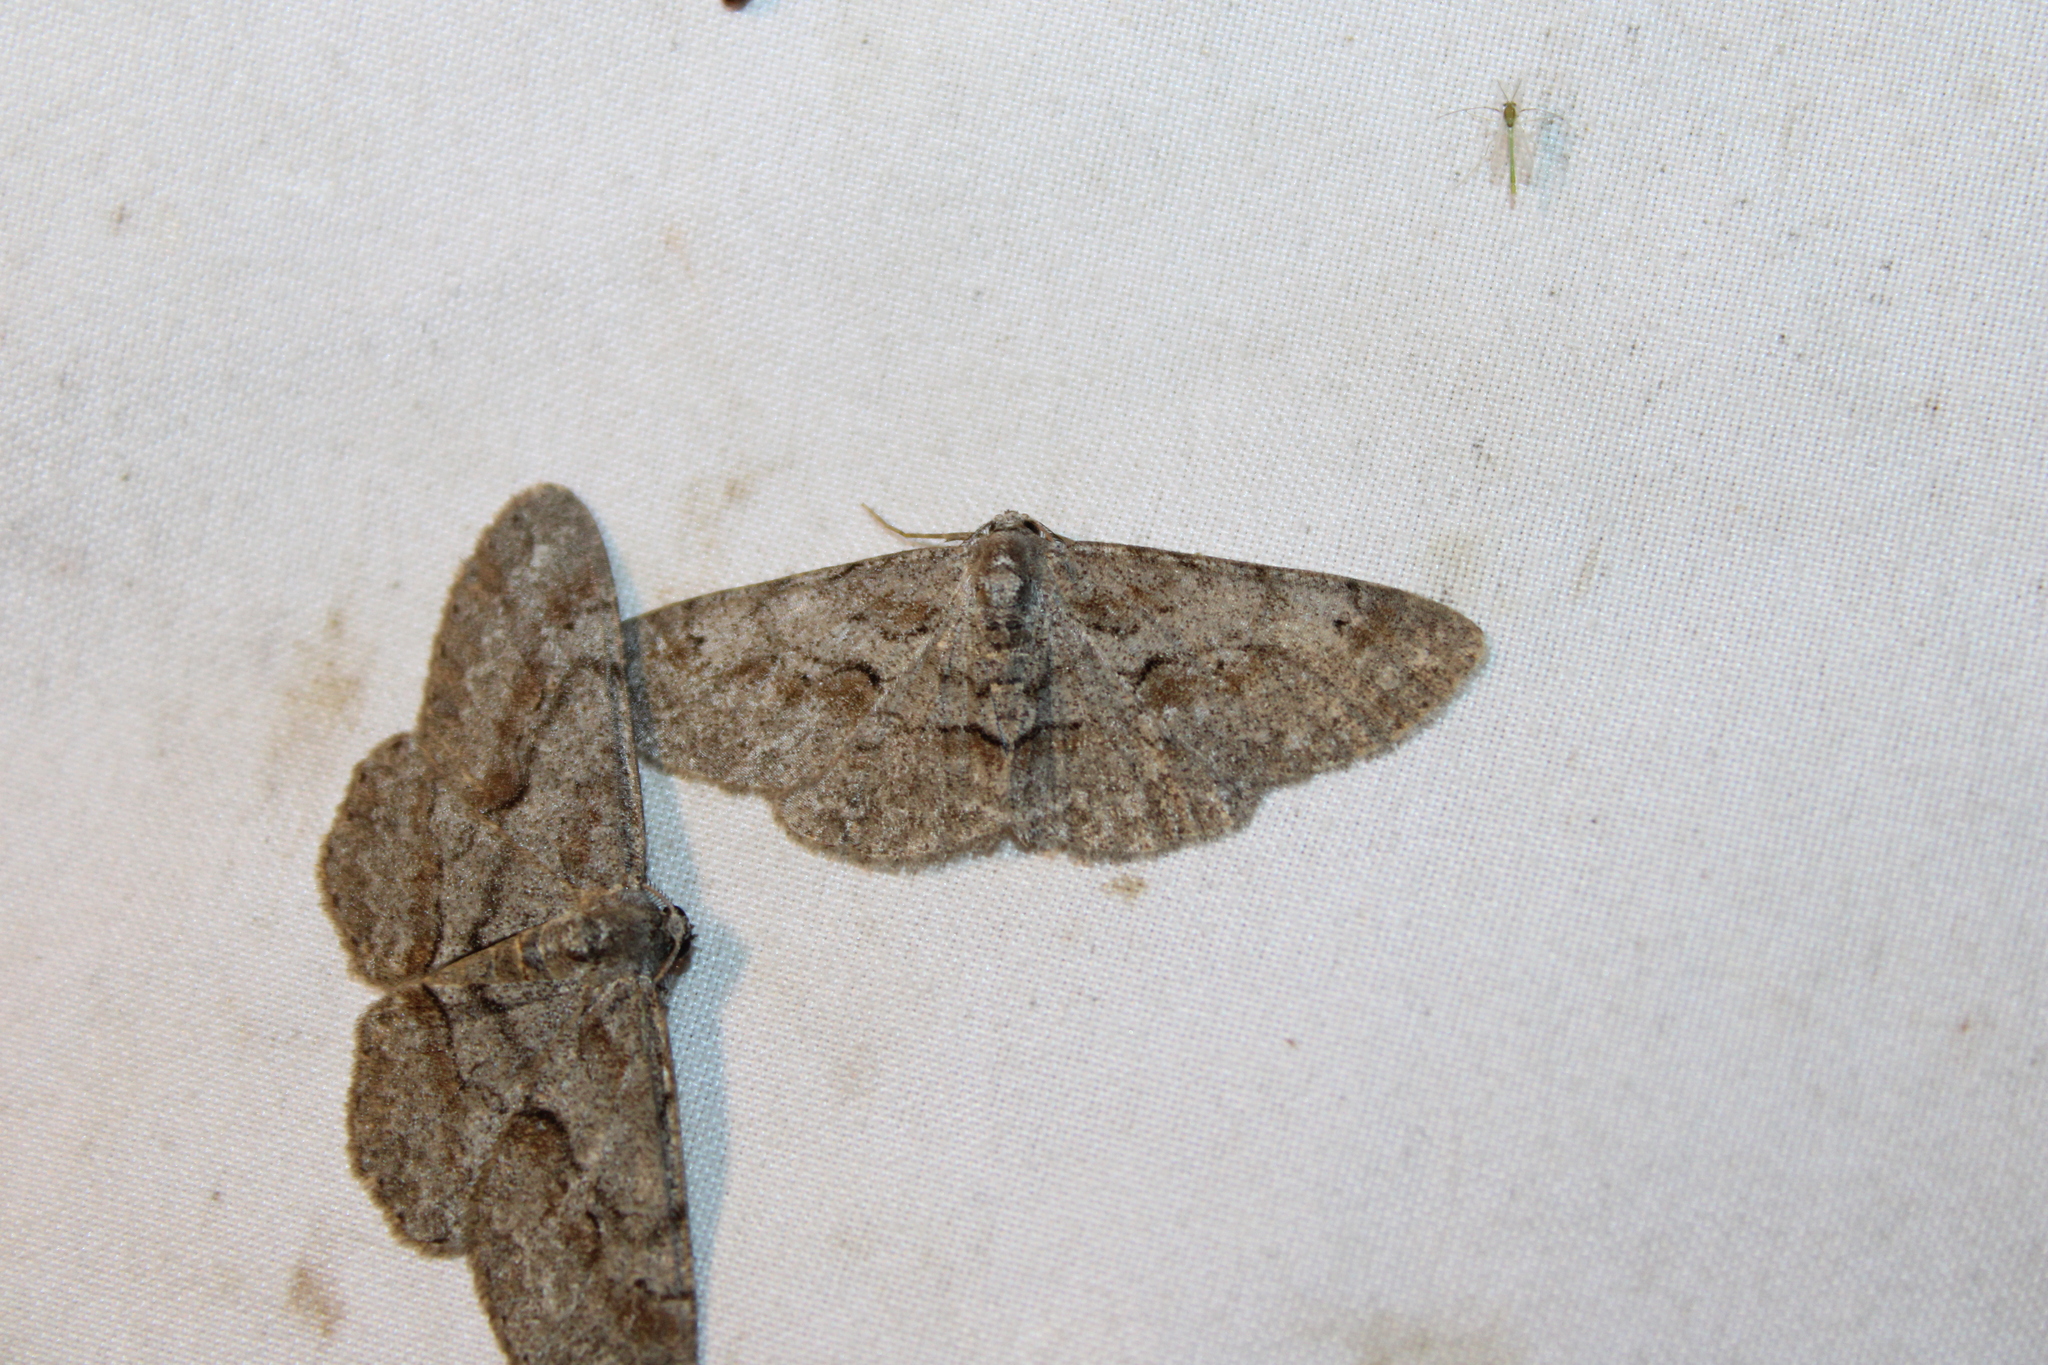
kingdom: Animalia
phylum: Arthropoda
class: Insecta
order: Lepidoptera
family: Geometridae
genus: Iridopsis
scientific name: Iridopsis vellivolata
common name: Large purplish gray
